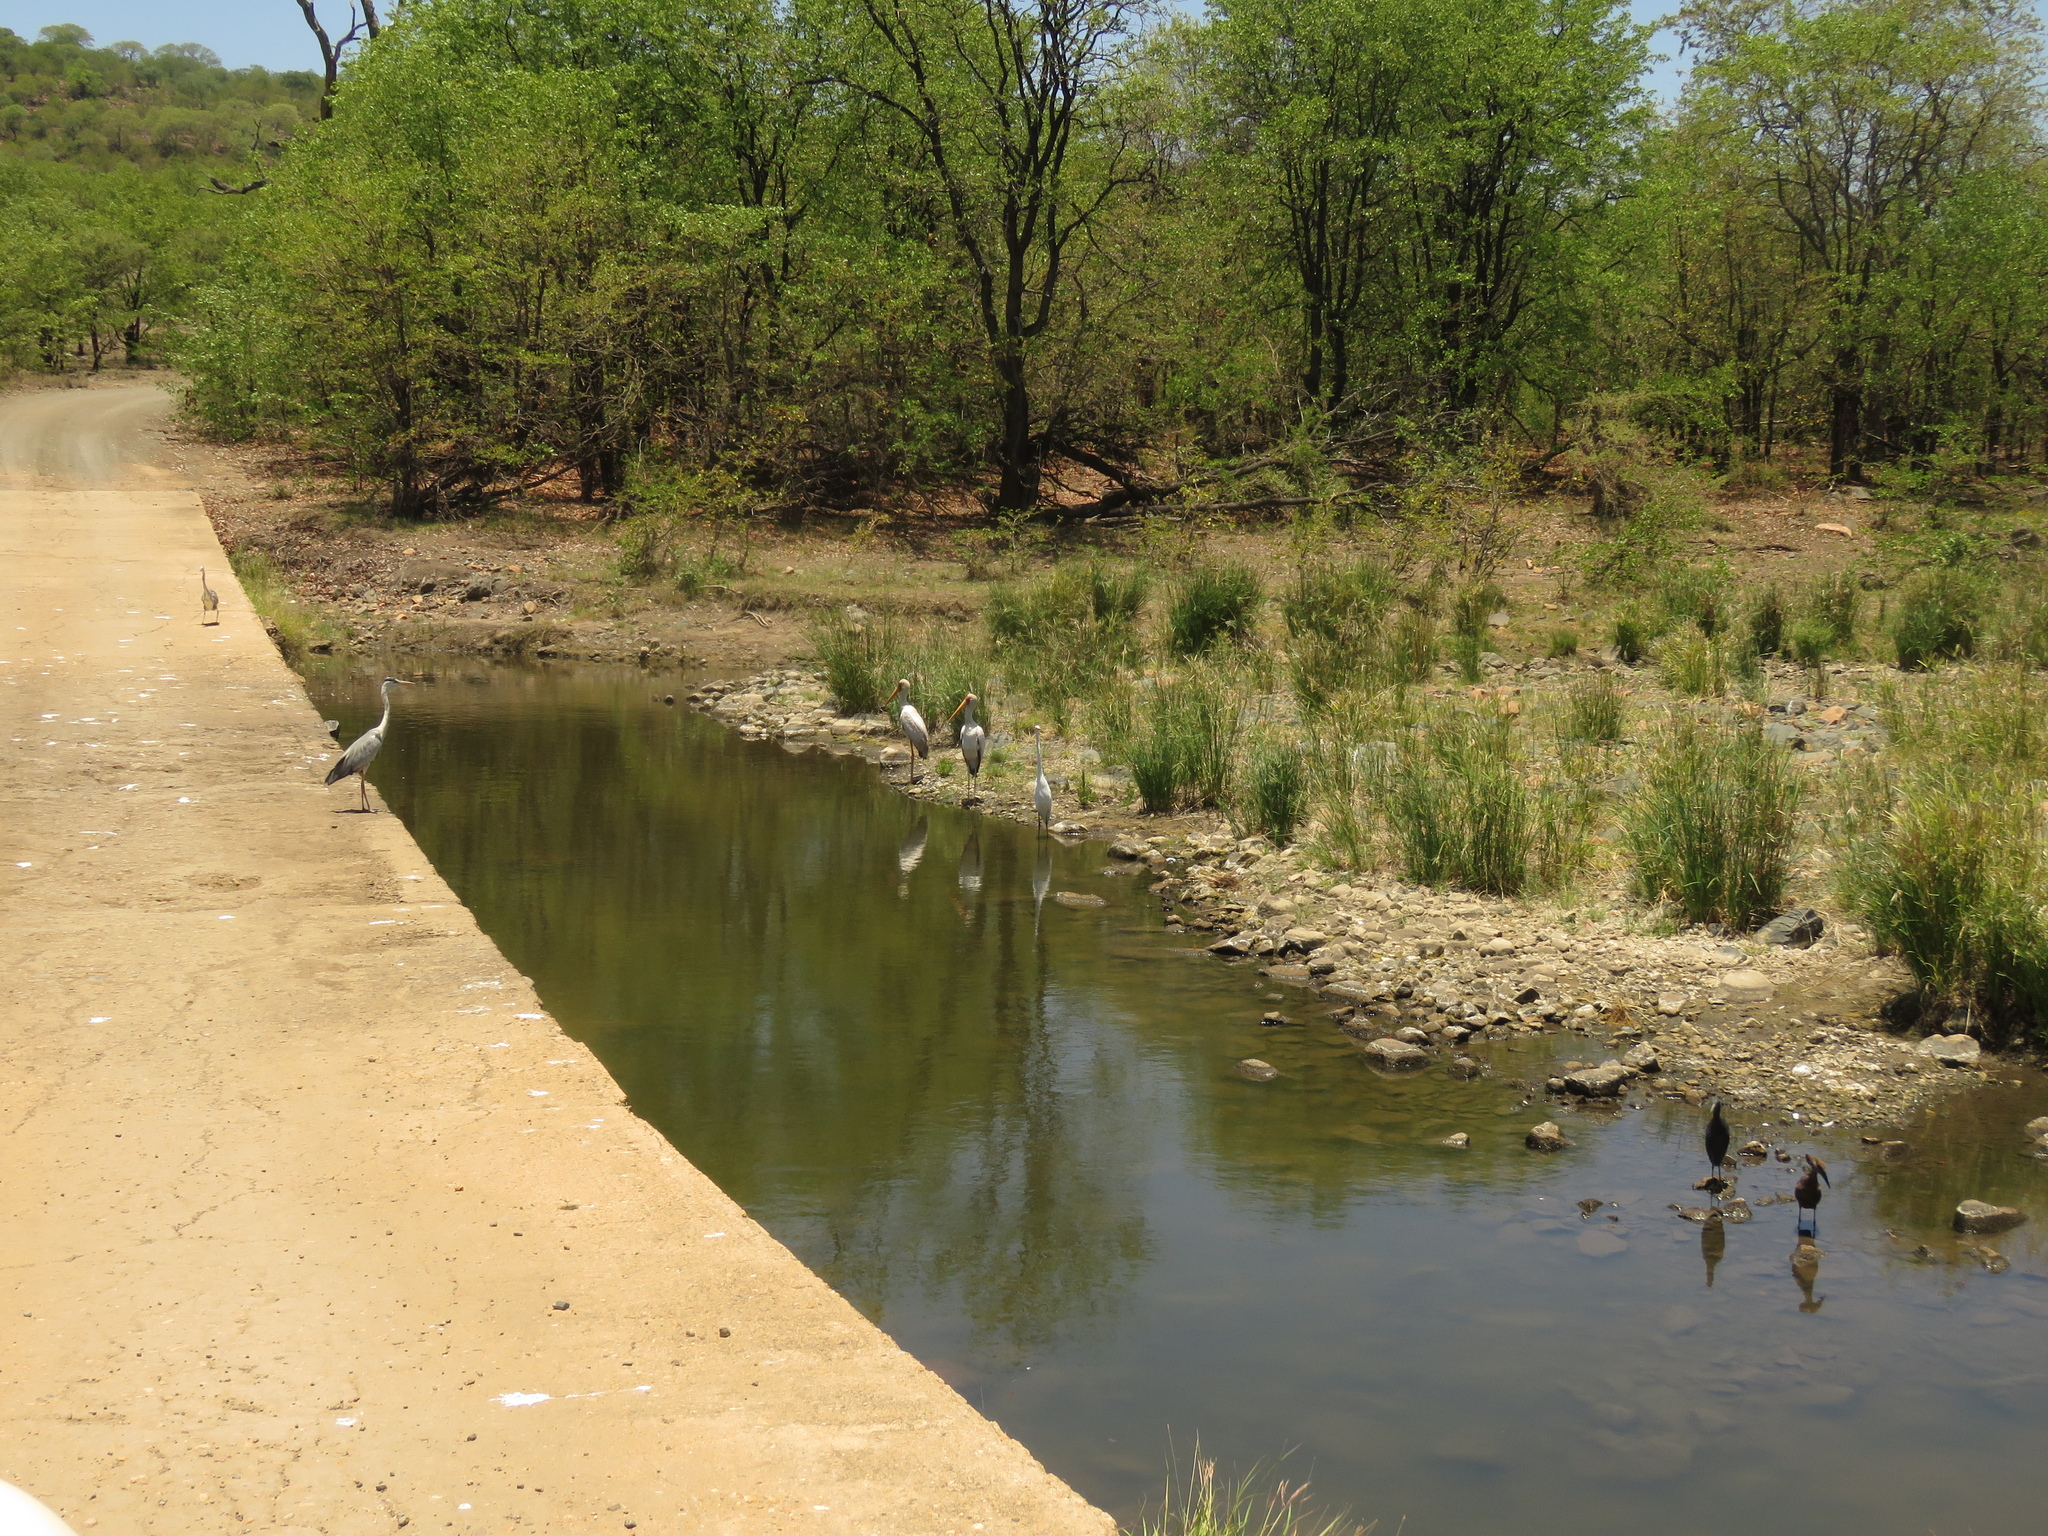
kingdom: Animalia
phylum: Chordata
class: Aves
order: Ciconiiformes
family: Ciconiidae
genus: Mycteria
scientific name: Mycteria ibis
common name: Yellow-billed stork
